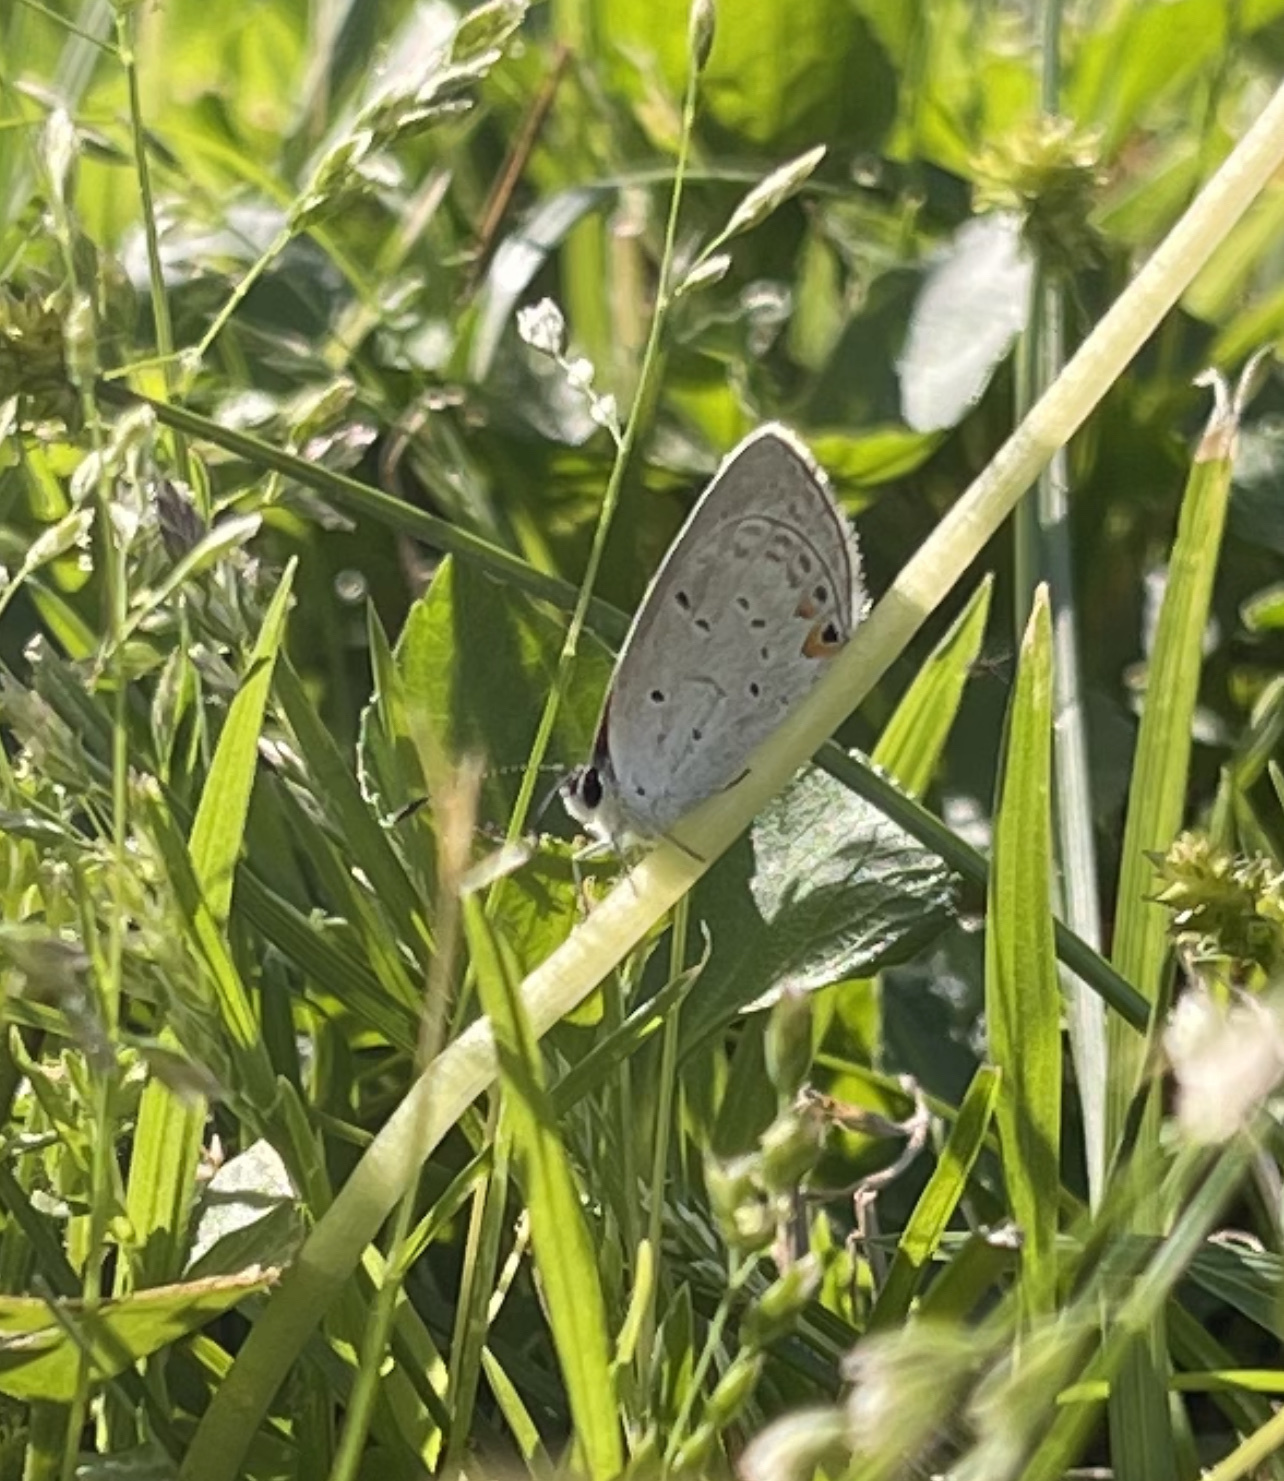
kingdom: Animalia
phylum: Arthropoda
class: Insecta
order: Lepidoptera
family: Lycaenidae
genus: Elkalyce
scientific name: Elkalyce comyntas
